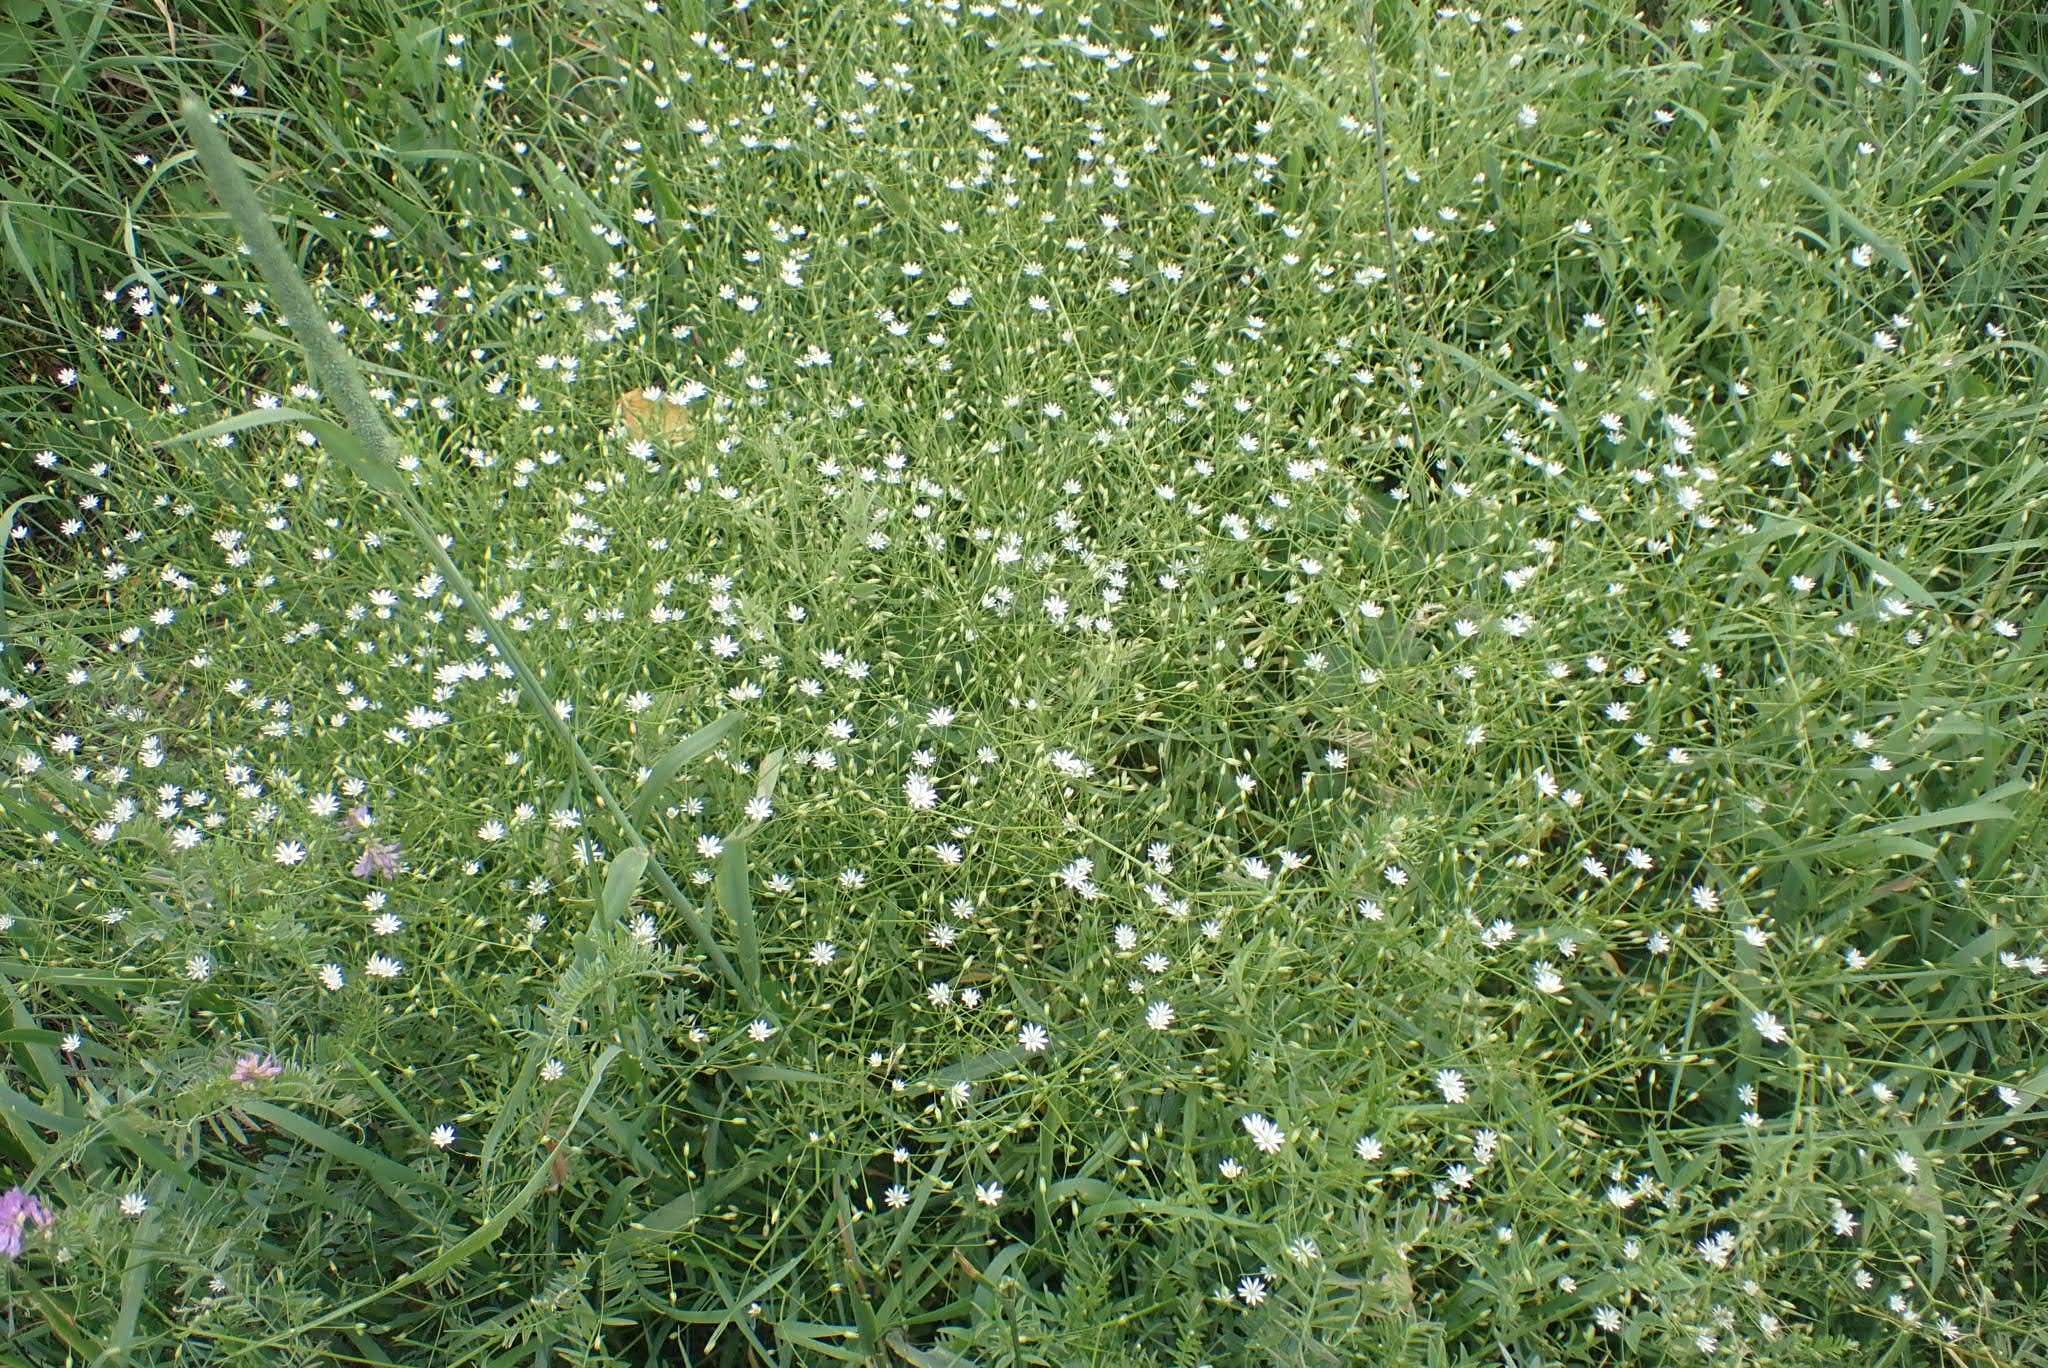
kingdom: Plantae
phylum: Tracheophyta
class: Magnoliopsida
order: Caryophyllales
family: Caryophyllaceae
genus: Stellaria
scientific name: Stellaria graminea
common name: Grass-like starwort
